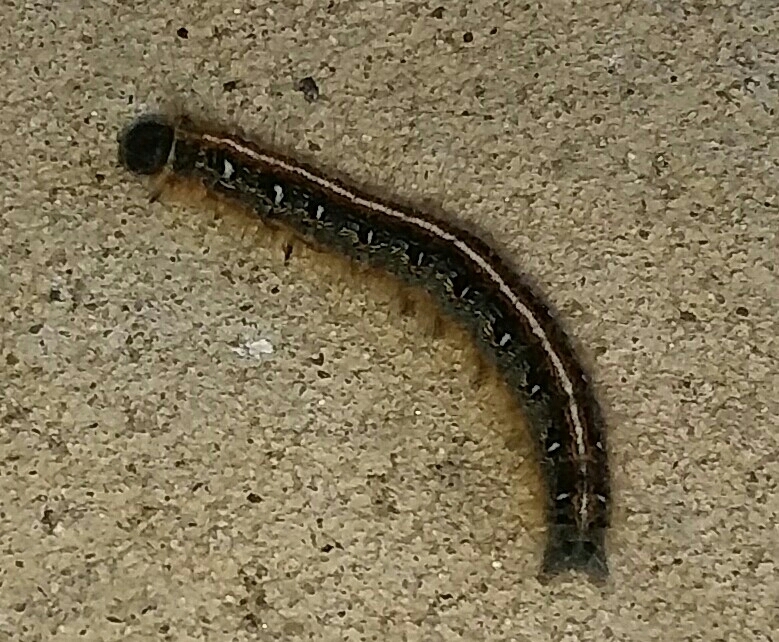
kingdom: Animalia
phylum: Arthropoda
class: Insecta
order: Lepidoptera
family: Lasiocampidae
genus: Malacosoma
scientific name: Malacosoma americana
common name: Eastern tent caterpillar moth
